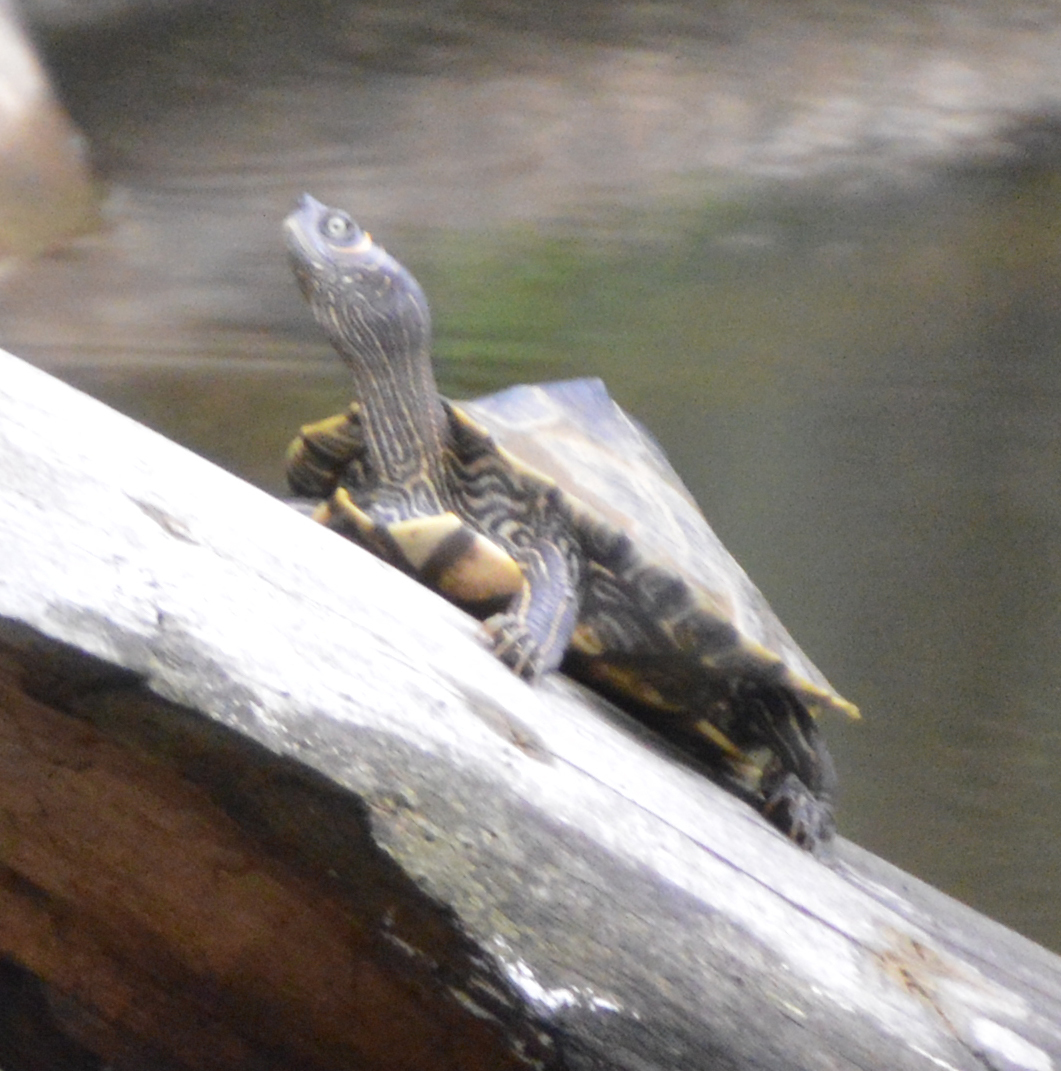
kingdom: Animalia
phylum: Chordata
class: Testudines
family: Emydidae
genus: Graptemys
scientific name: Graptemys pseudogeographica
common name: False map turtle
